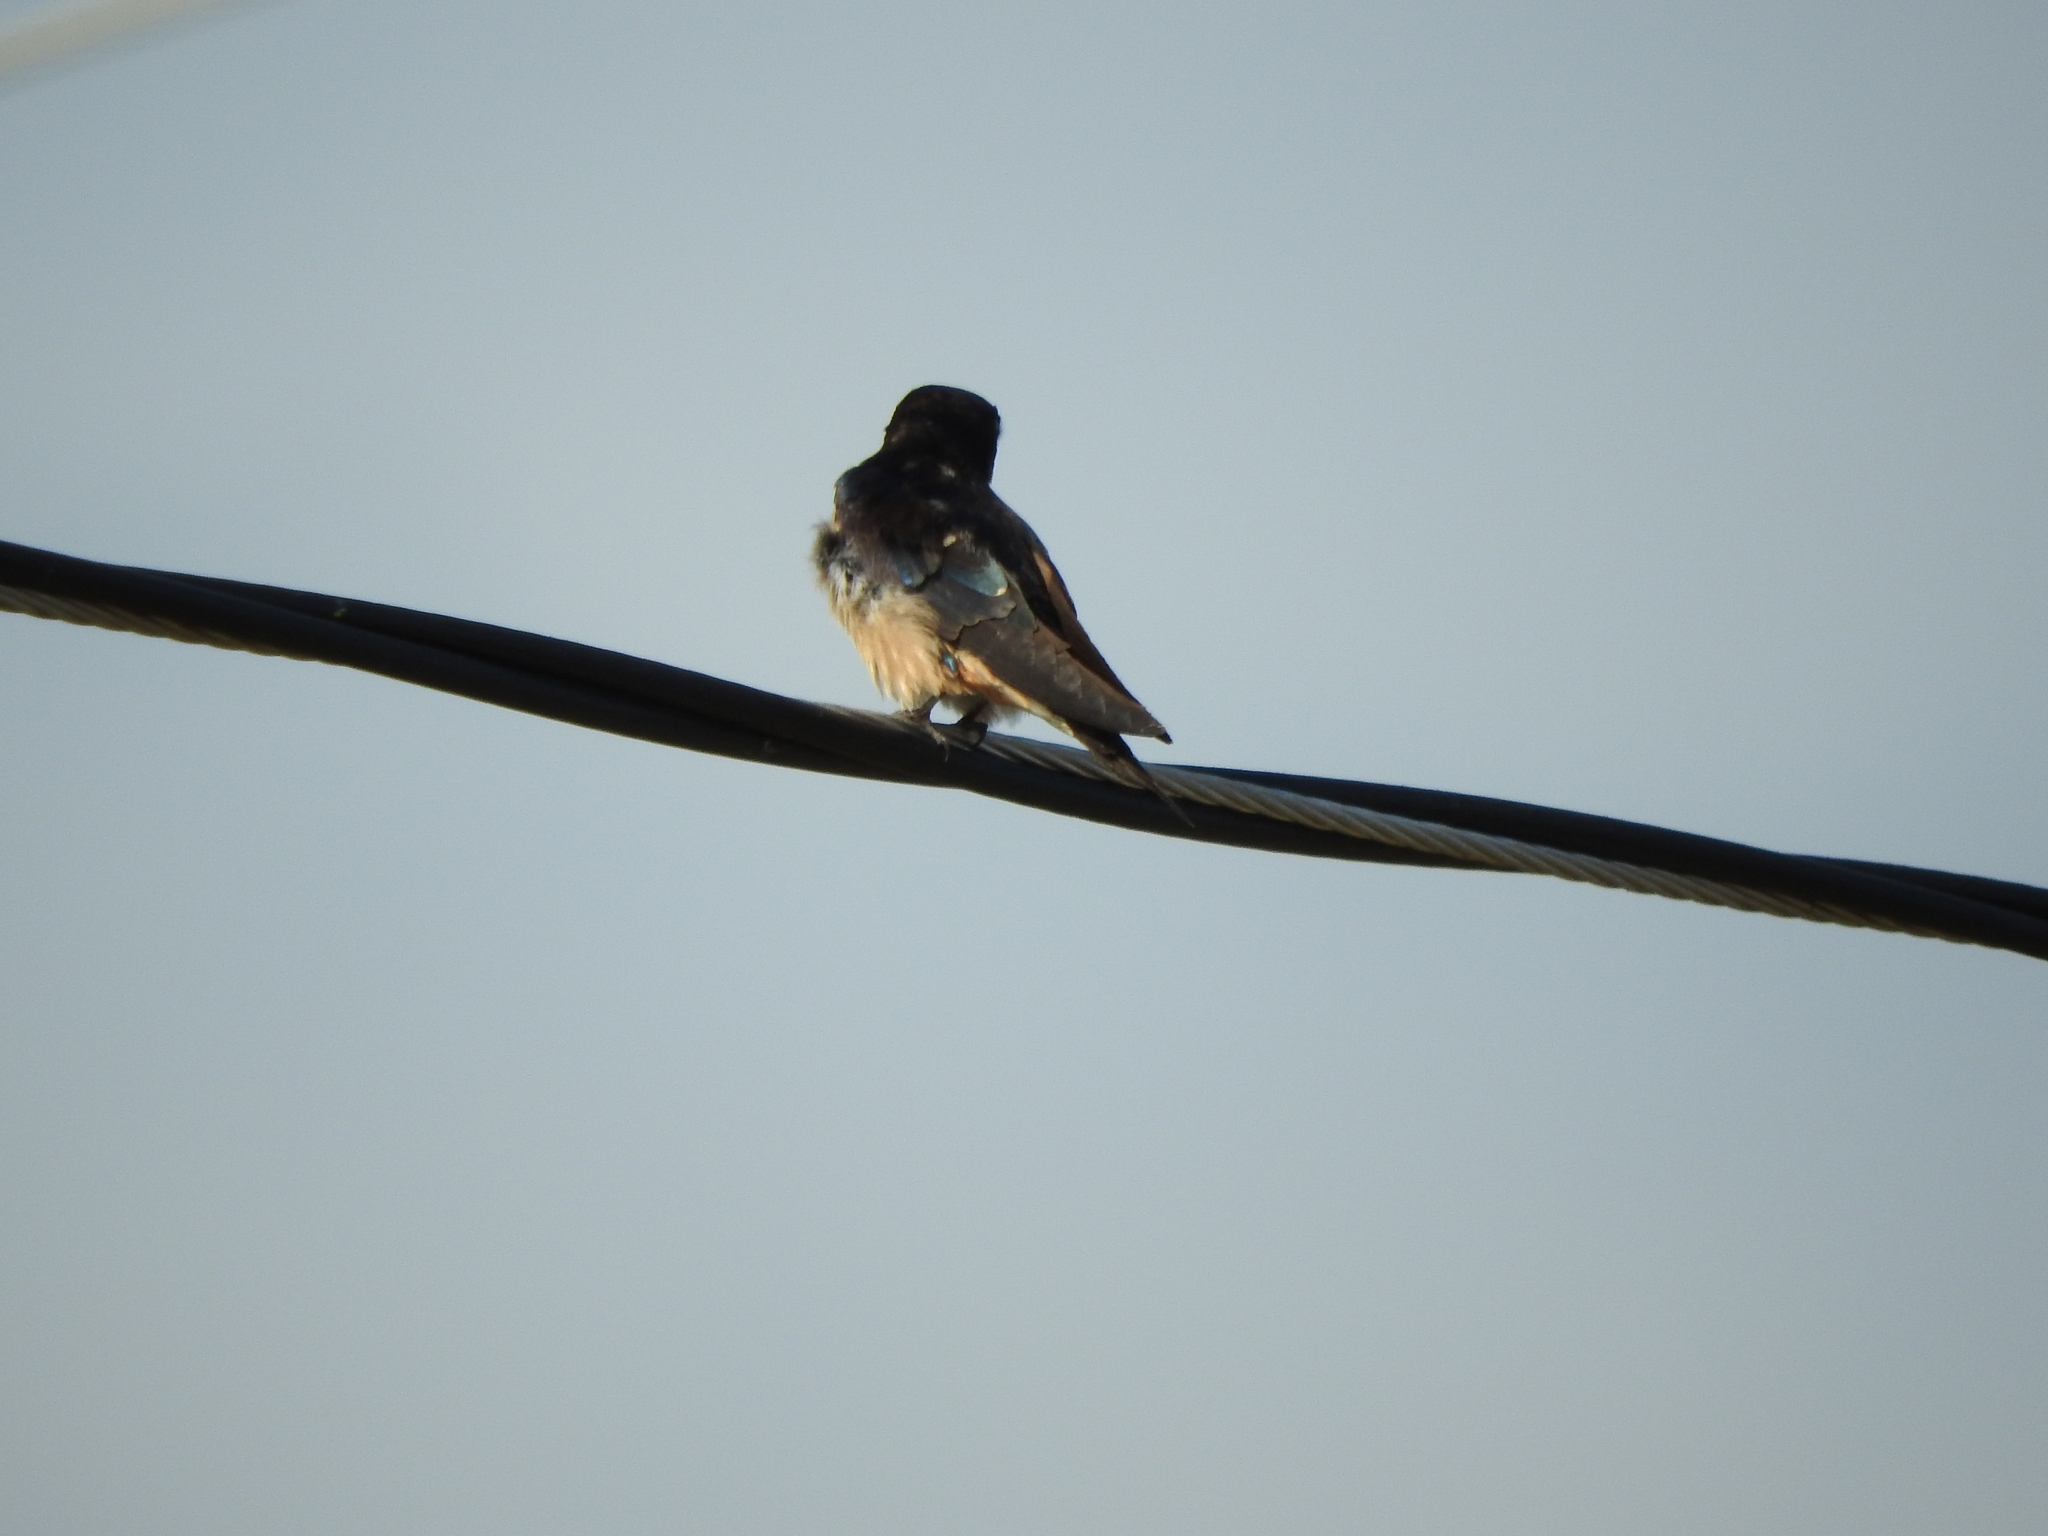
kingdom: Animalia
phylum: Chordata
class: Aves
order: Passeriformes
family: Hirundinidae
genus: Hirundo
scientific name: Hirundo rustica
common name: Barn swallow
